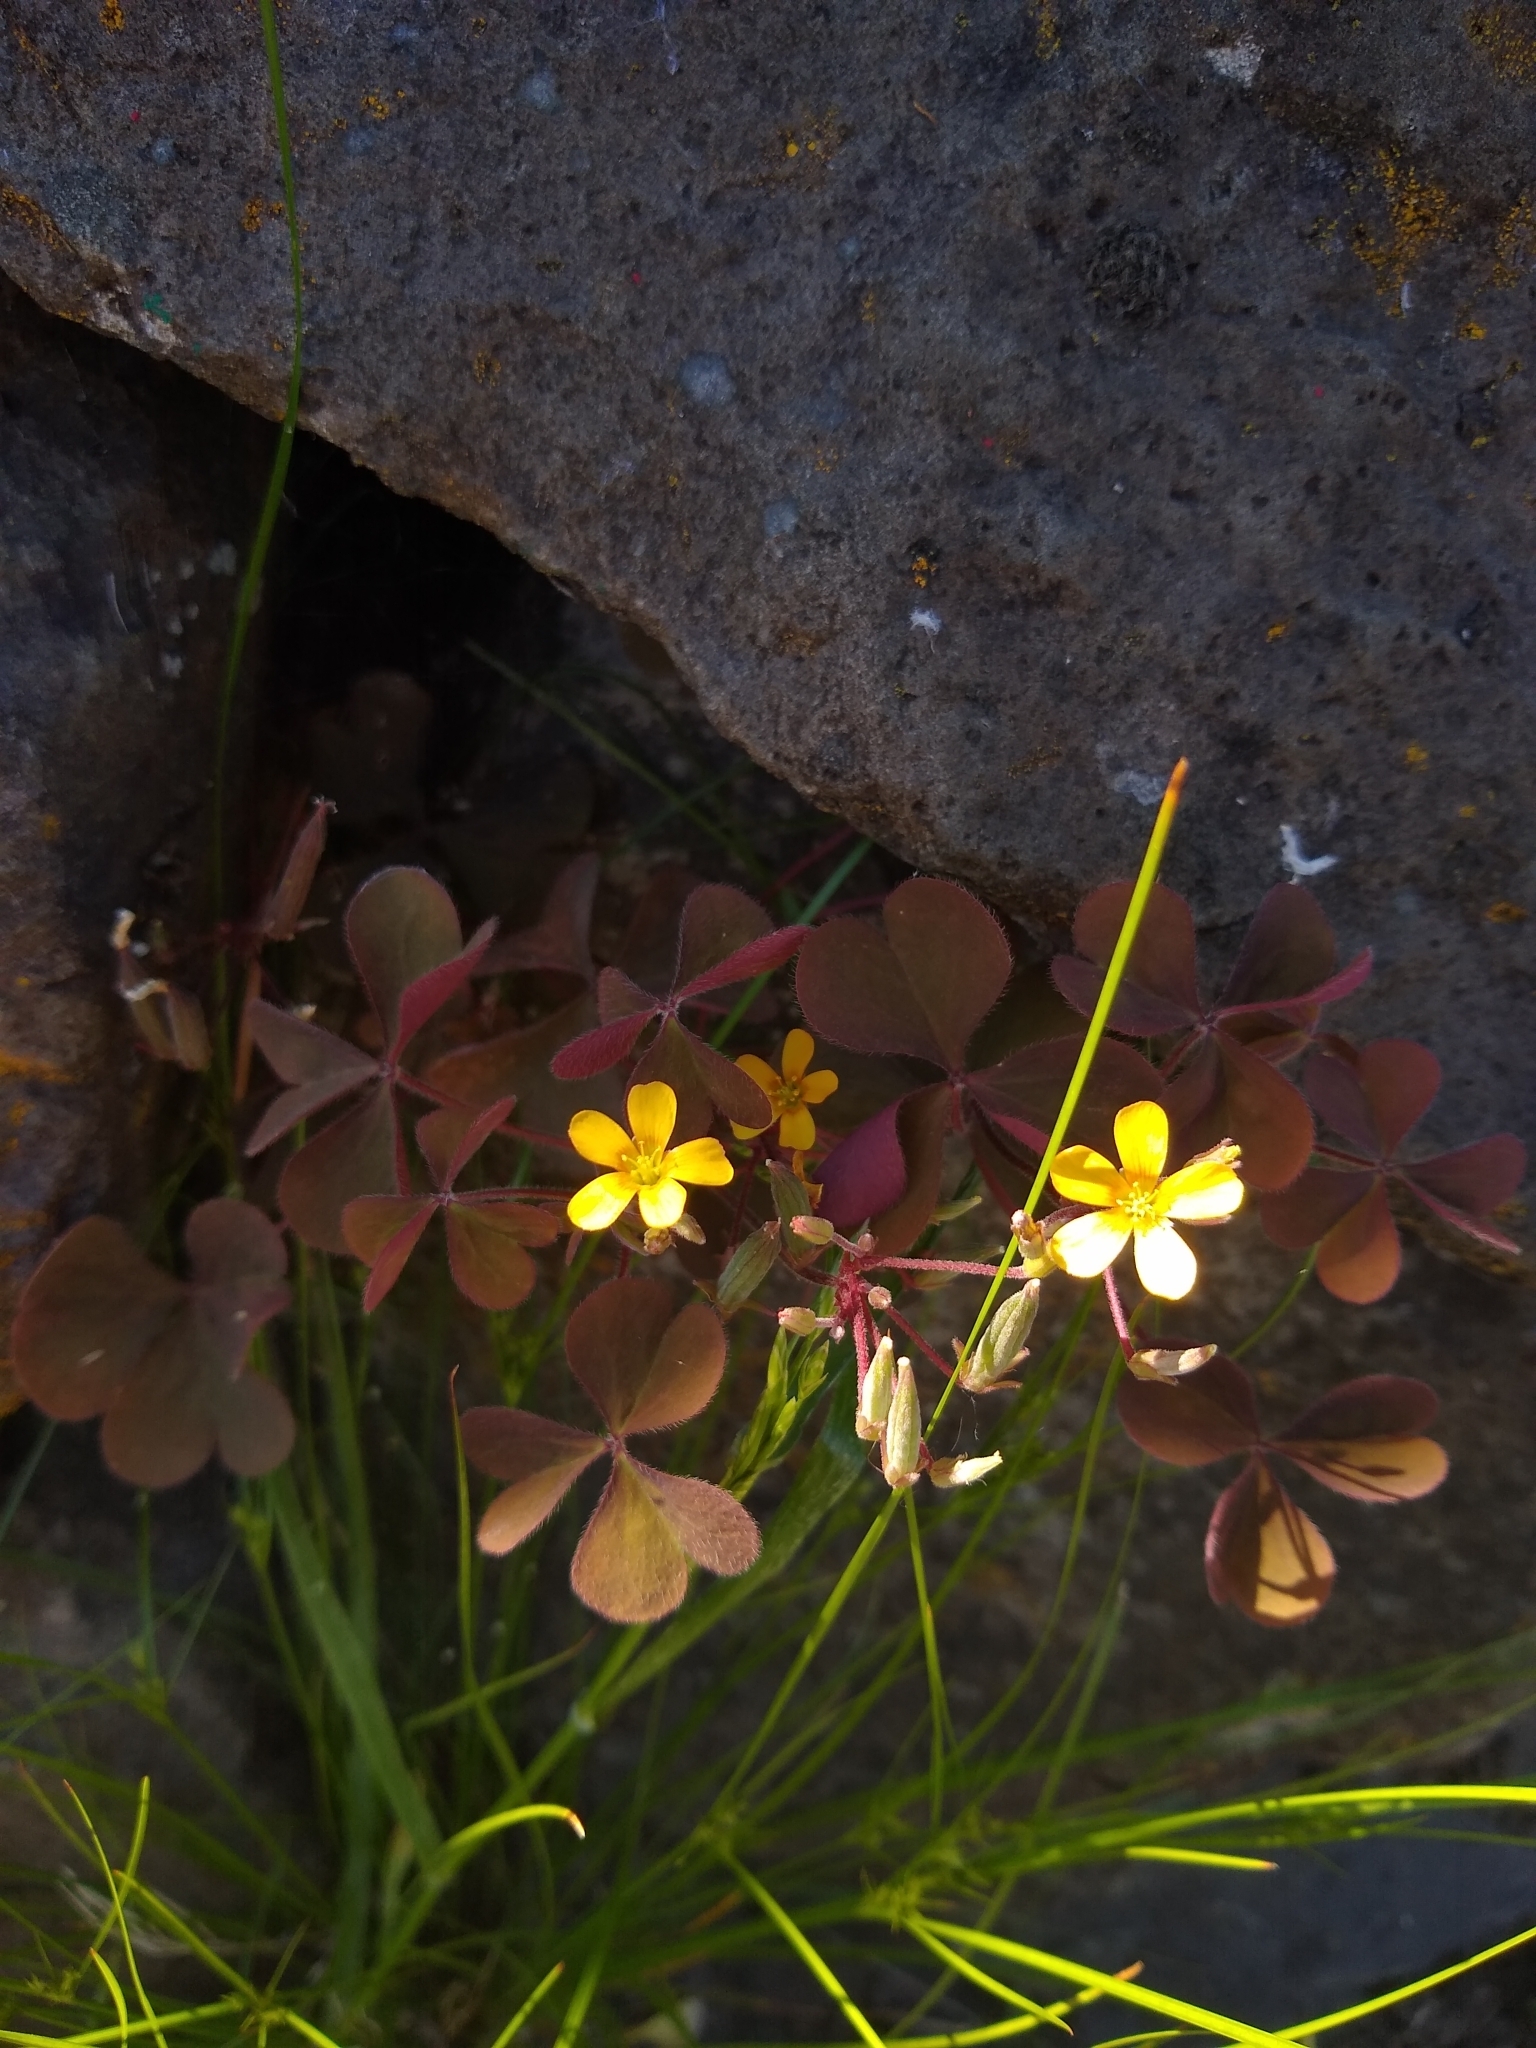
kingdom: Plantae
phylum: Tracheophyta
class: Magnoliopsida
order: Oxalidales
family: Oxalidaceae
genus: Oxalis
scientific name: Oxalis corniculata
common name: Procumbent yellow-sorrel
